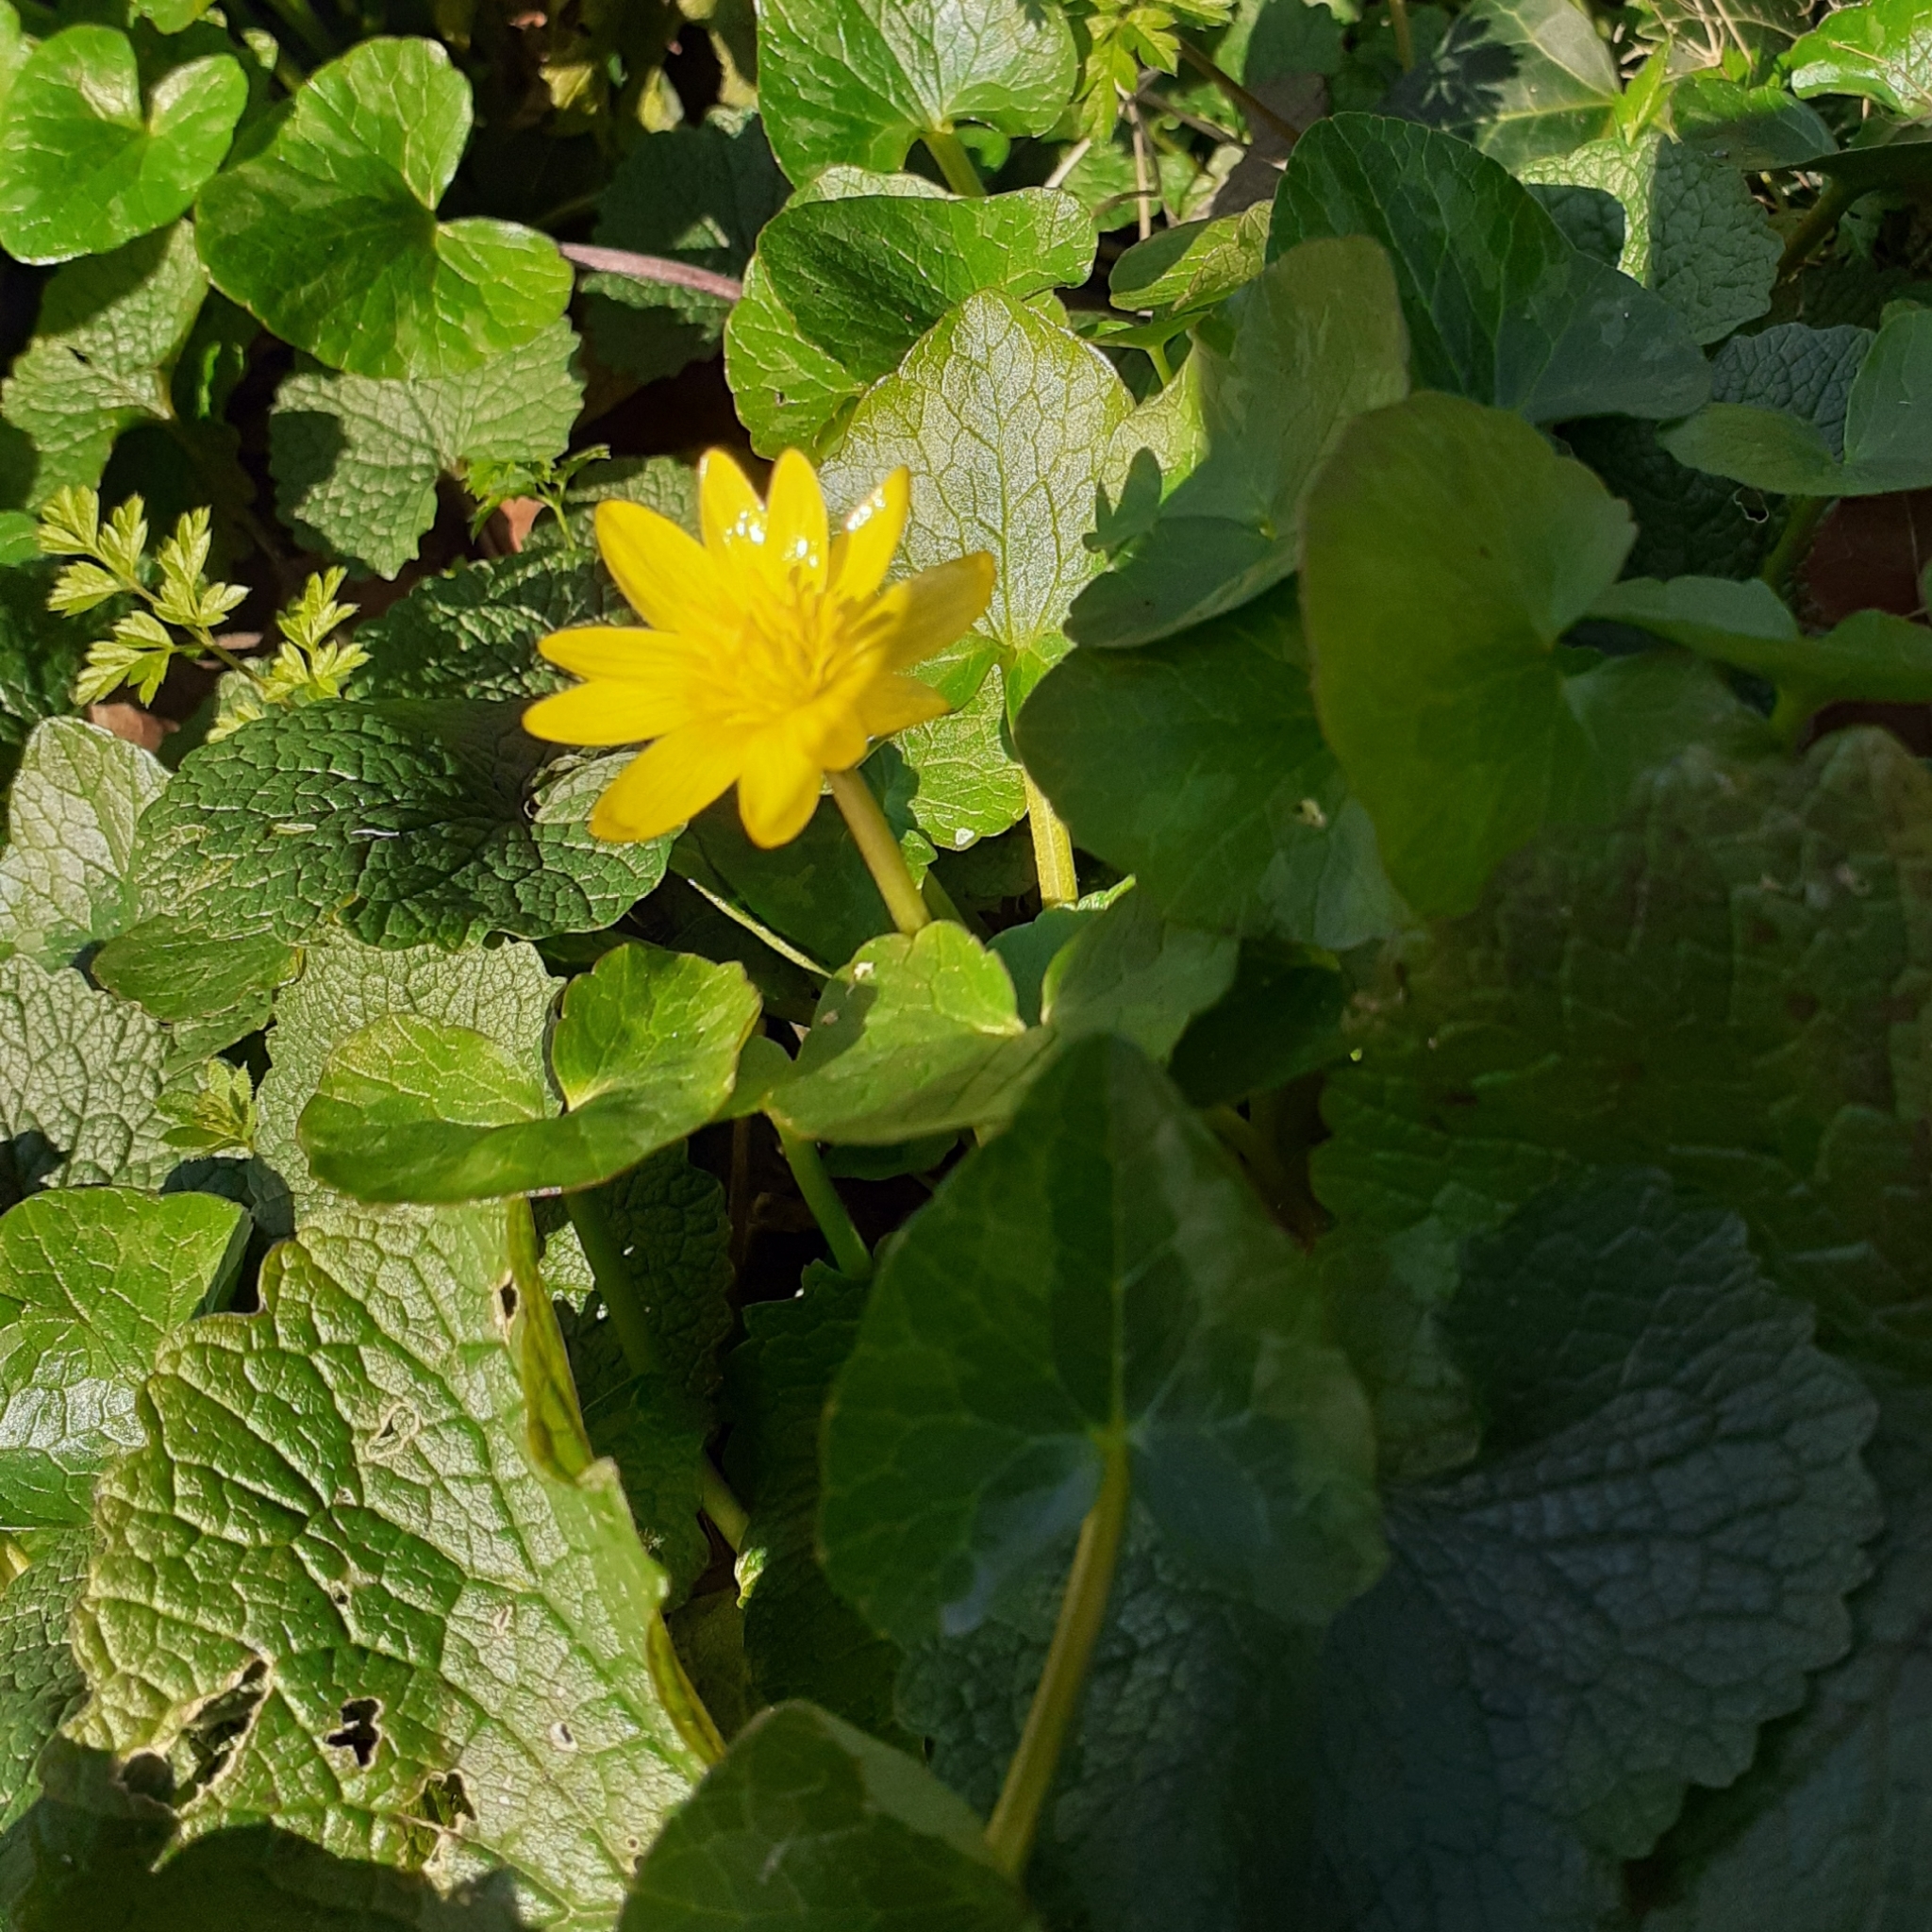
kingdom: Plantae
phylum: Tracheophyta
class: Magnoliopsida
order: Ranunculales
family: Ranunculaceae
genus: Ficaria
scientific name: Ficaria verna
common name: Lesser celandine
